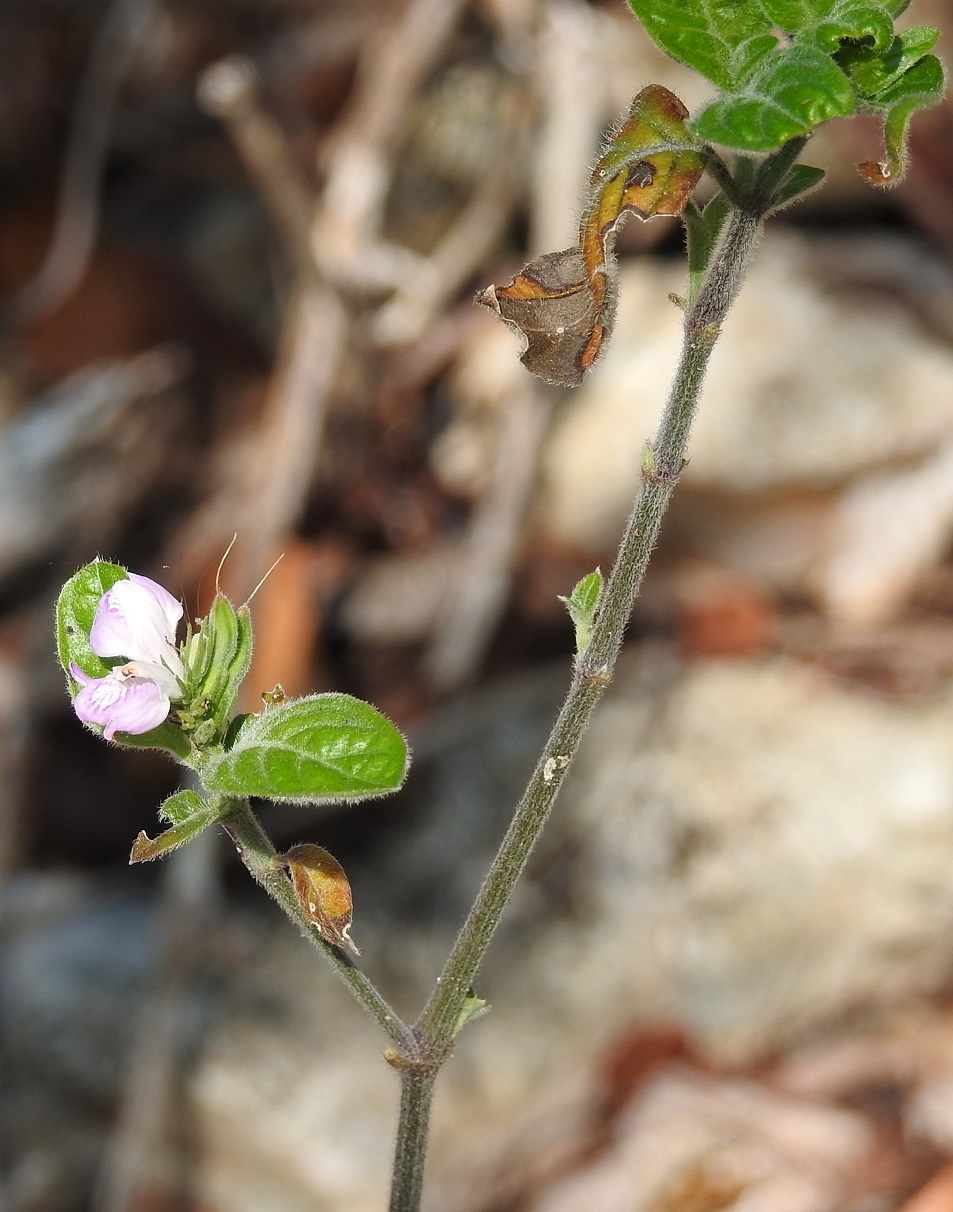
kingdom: Plantae
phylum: Tracheophyta
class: Magnoliopsida
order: Lamiales
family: Acanthaceae
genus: Dianthera
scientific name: Dianthera breviflora
